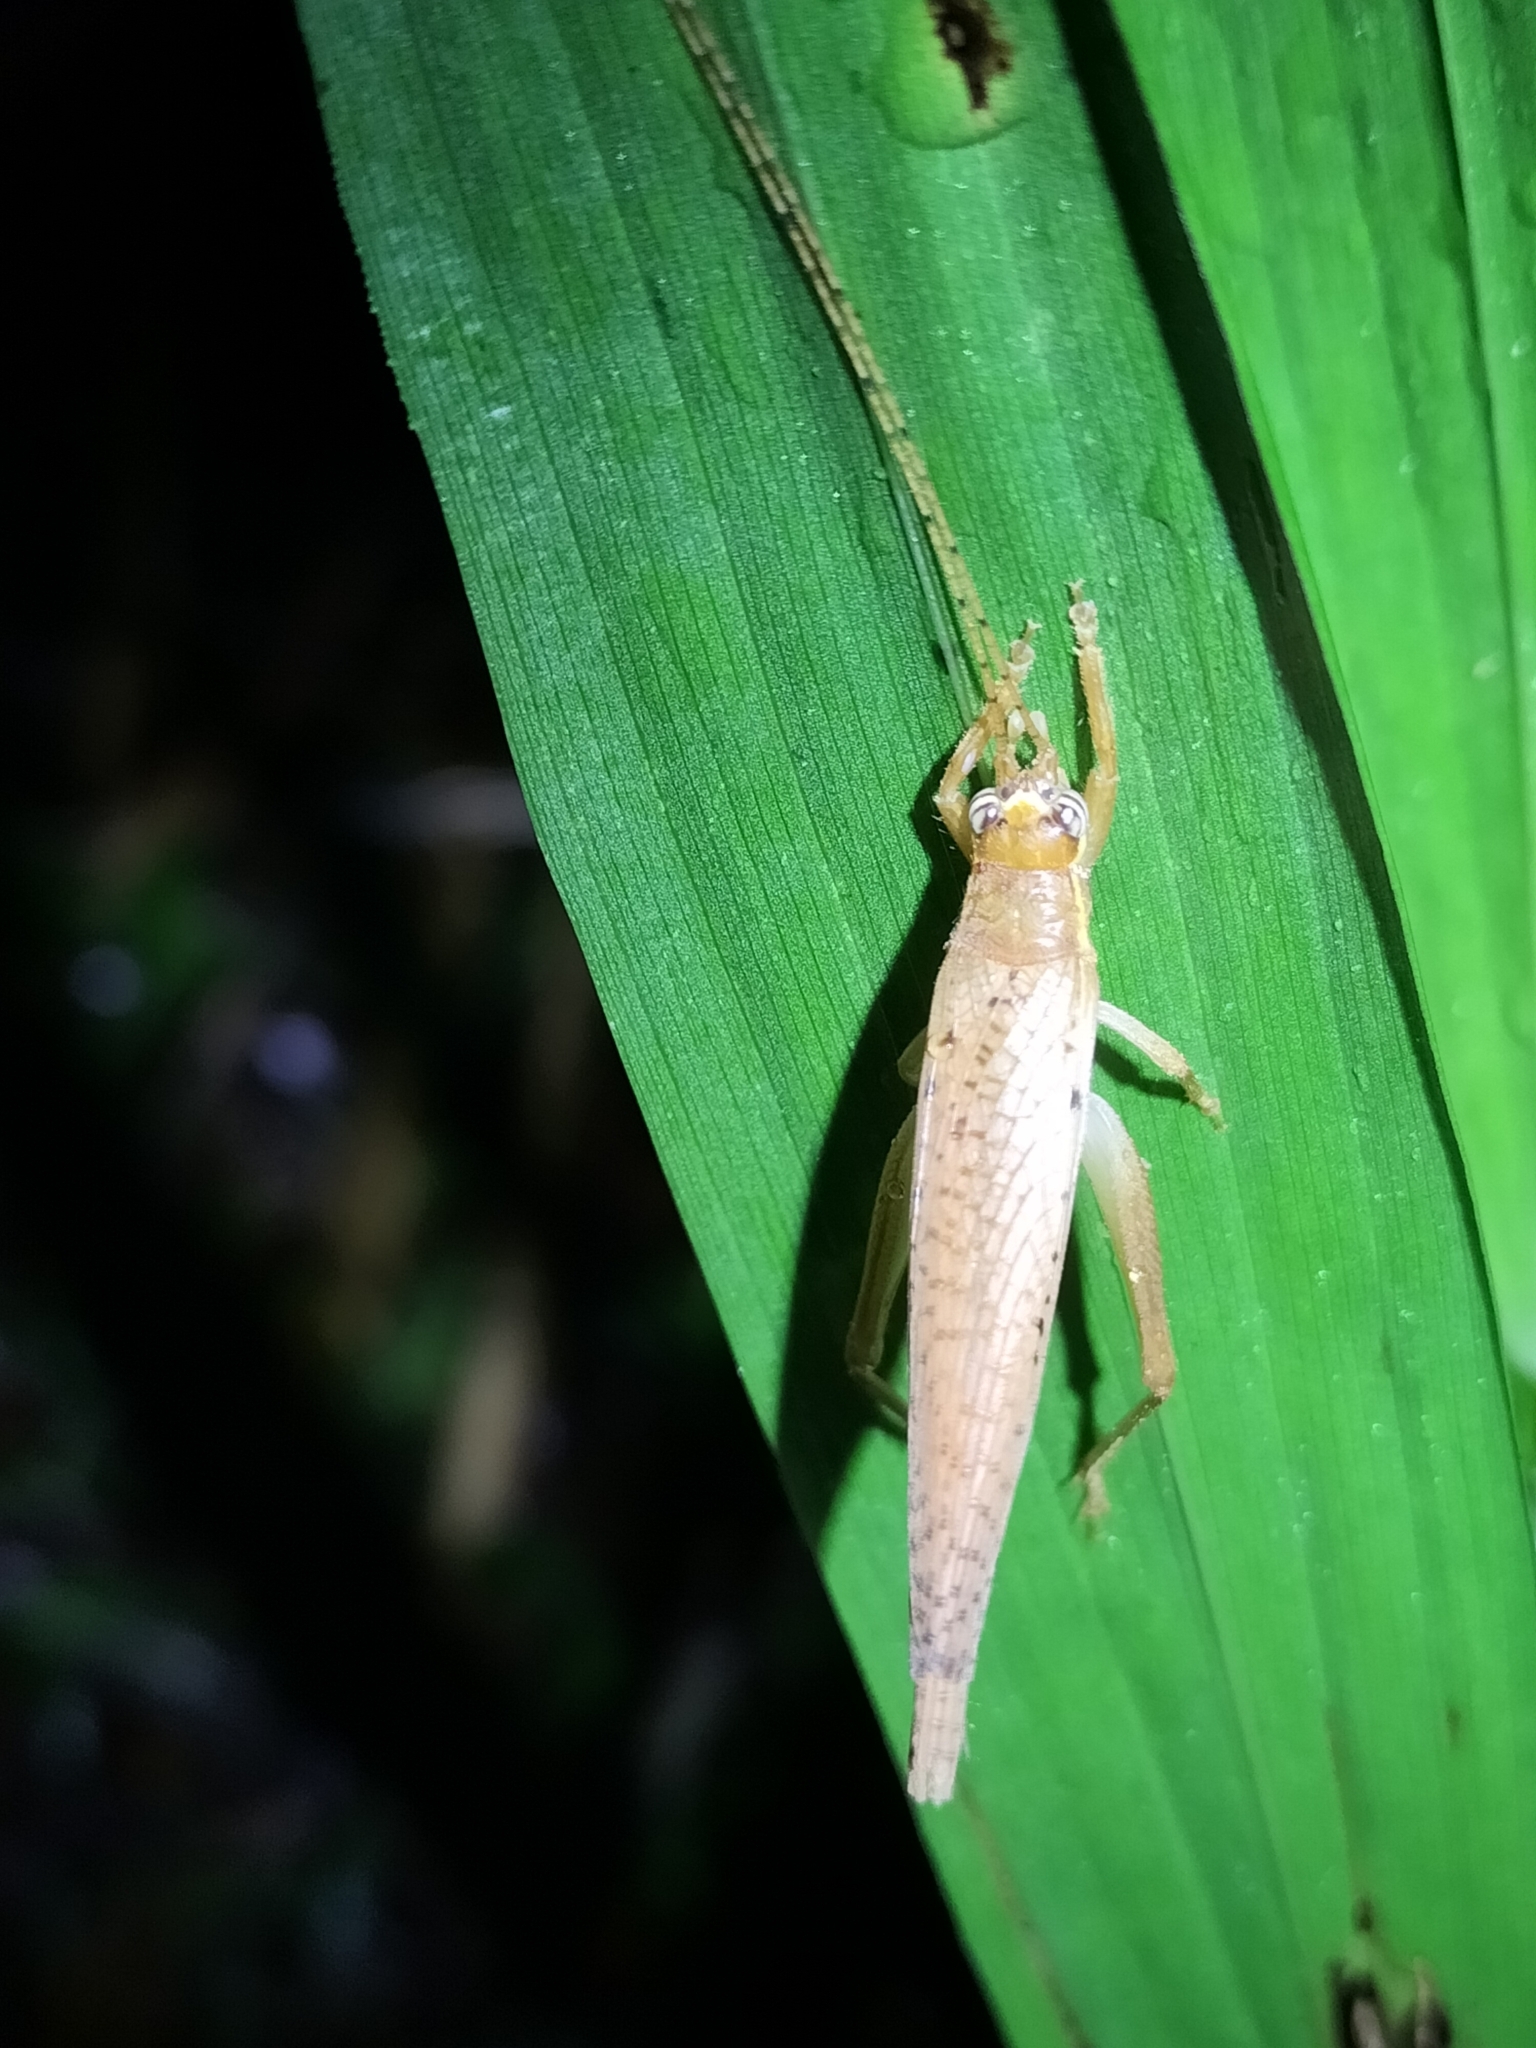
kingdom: Animalia
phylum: Arthropoda
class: Insecta
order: Orthoptera
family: Gryllidae
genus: Unka
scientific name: Unka boreena
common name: Shielded bush cricket
